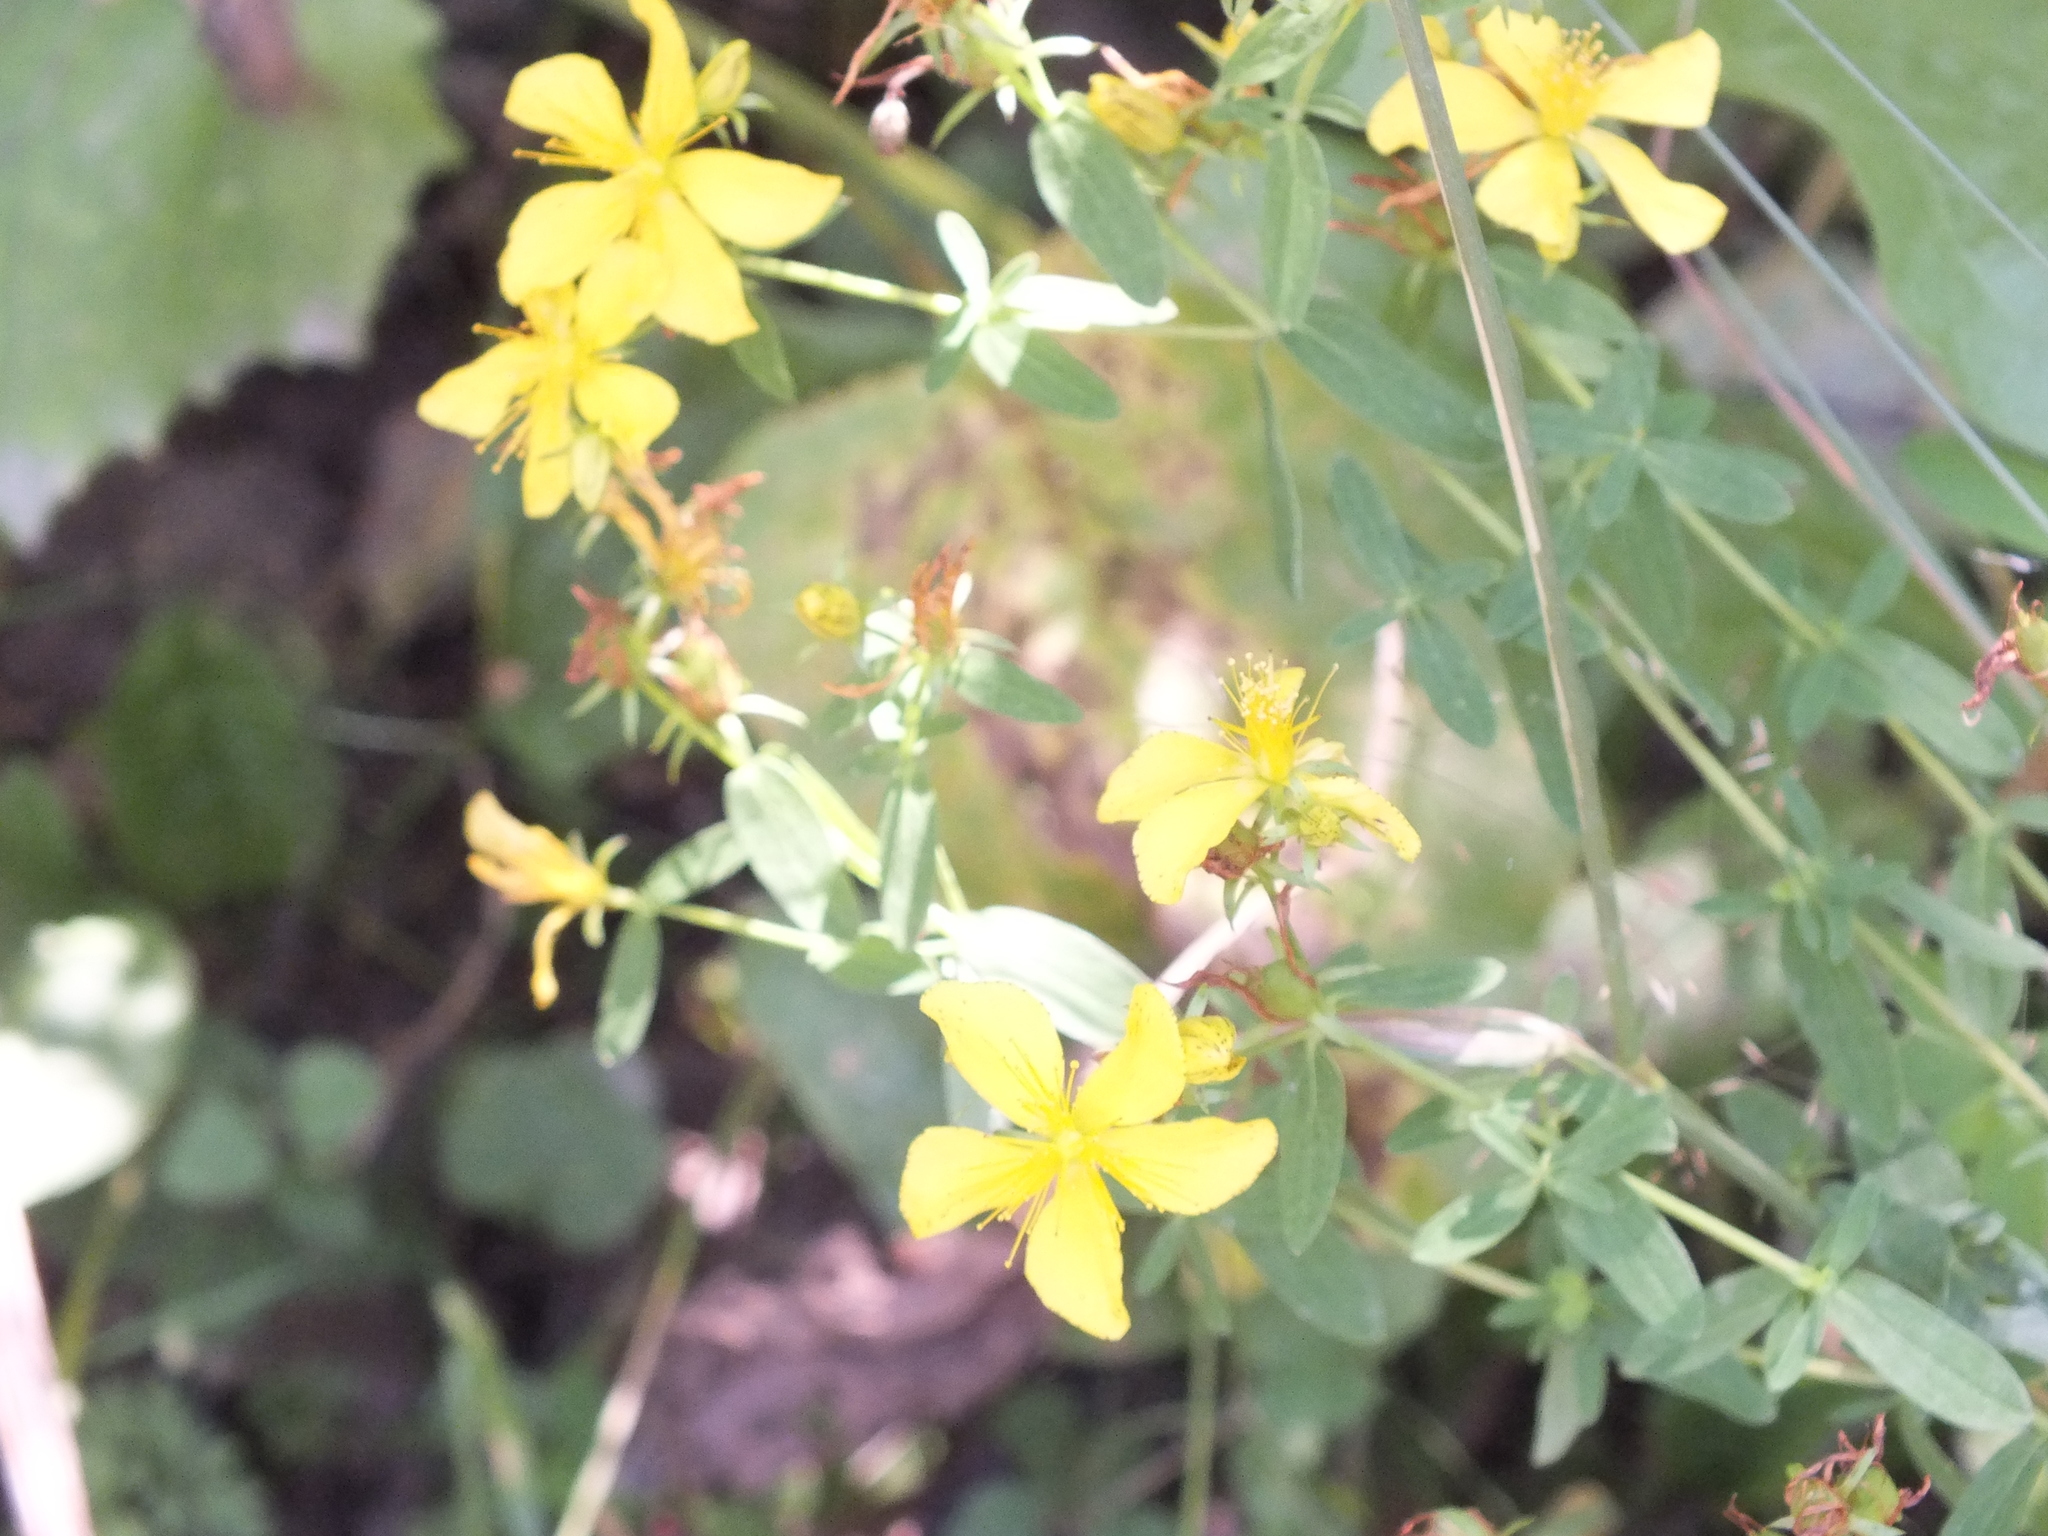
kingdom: Plantae
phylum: Tracheophyta
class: Magnoliopsida
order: Malpighiales
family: Hypericaceae
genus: Hypericum
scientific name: Hypericum perforatum
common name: Common st. johnswort
